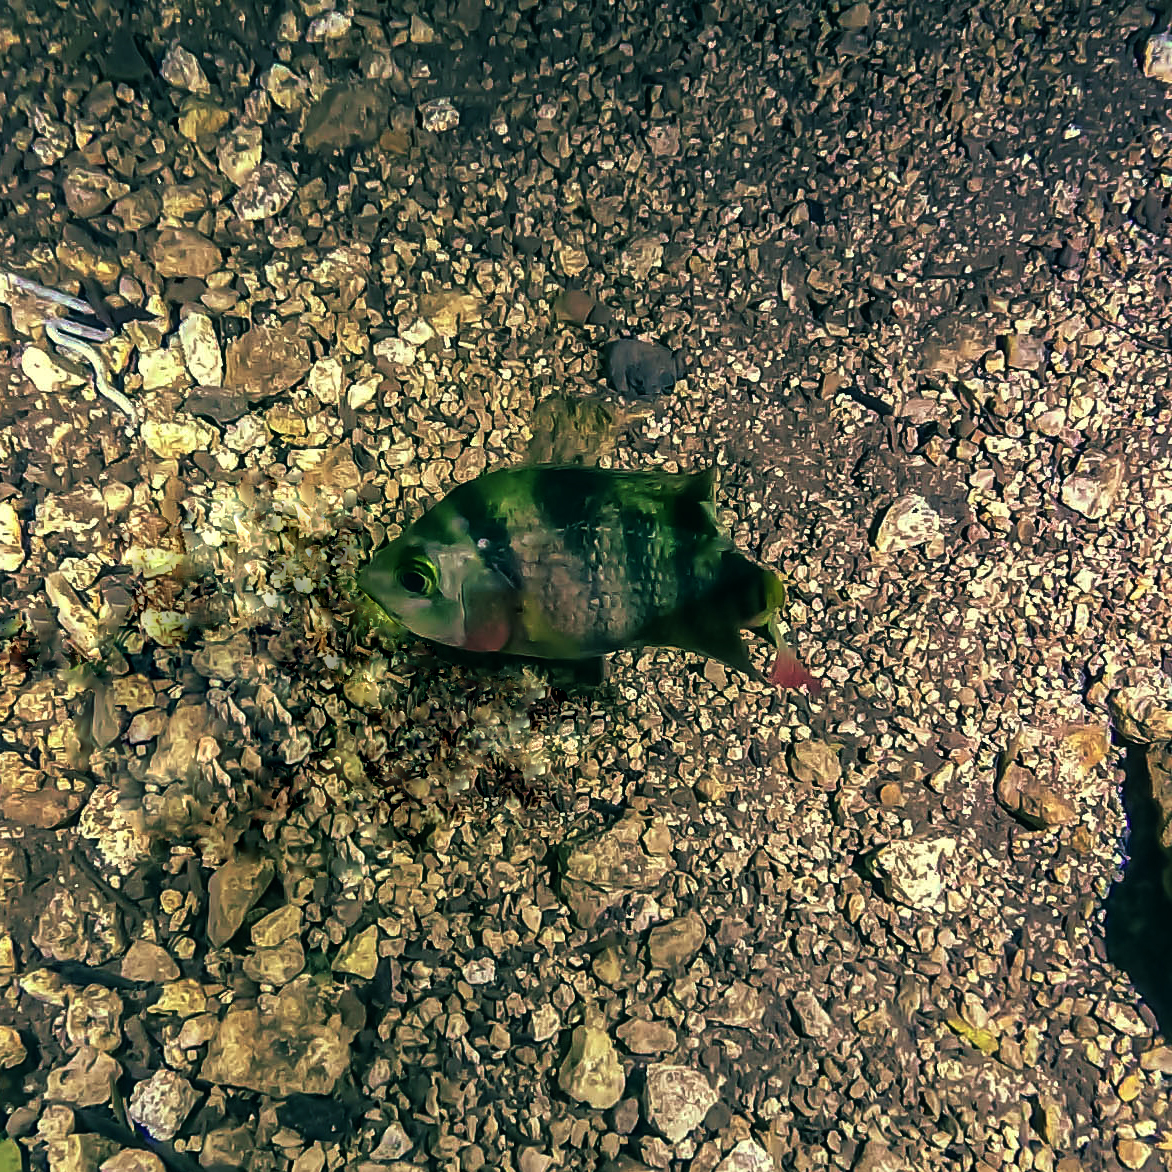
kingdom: Animalia
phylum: Chordata
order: Perciformes
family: Cichlidae
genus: Mayaheros
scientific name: Mayaheros urophthalmus
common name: Mayan cichlid
